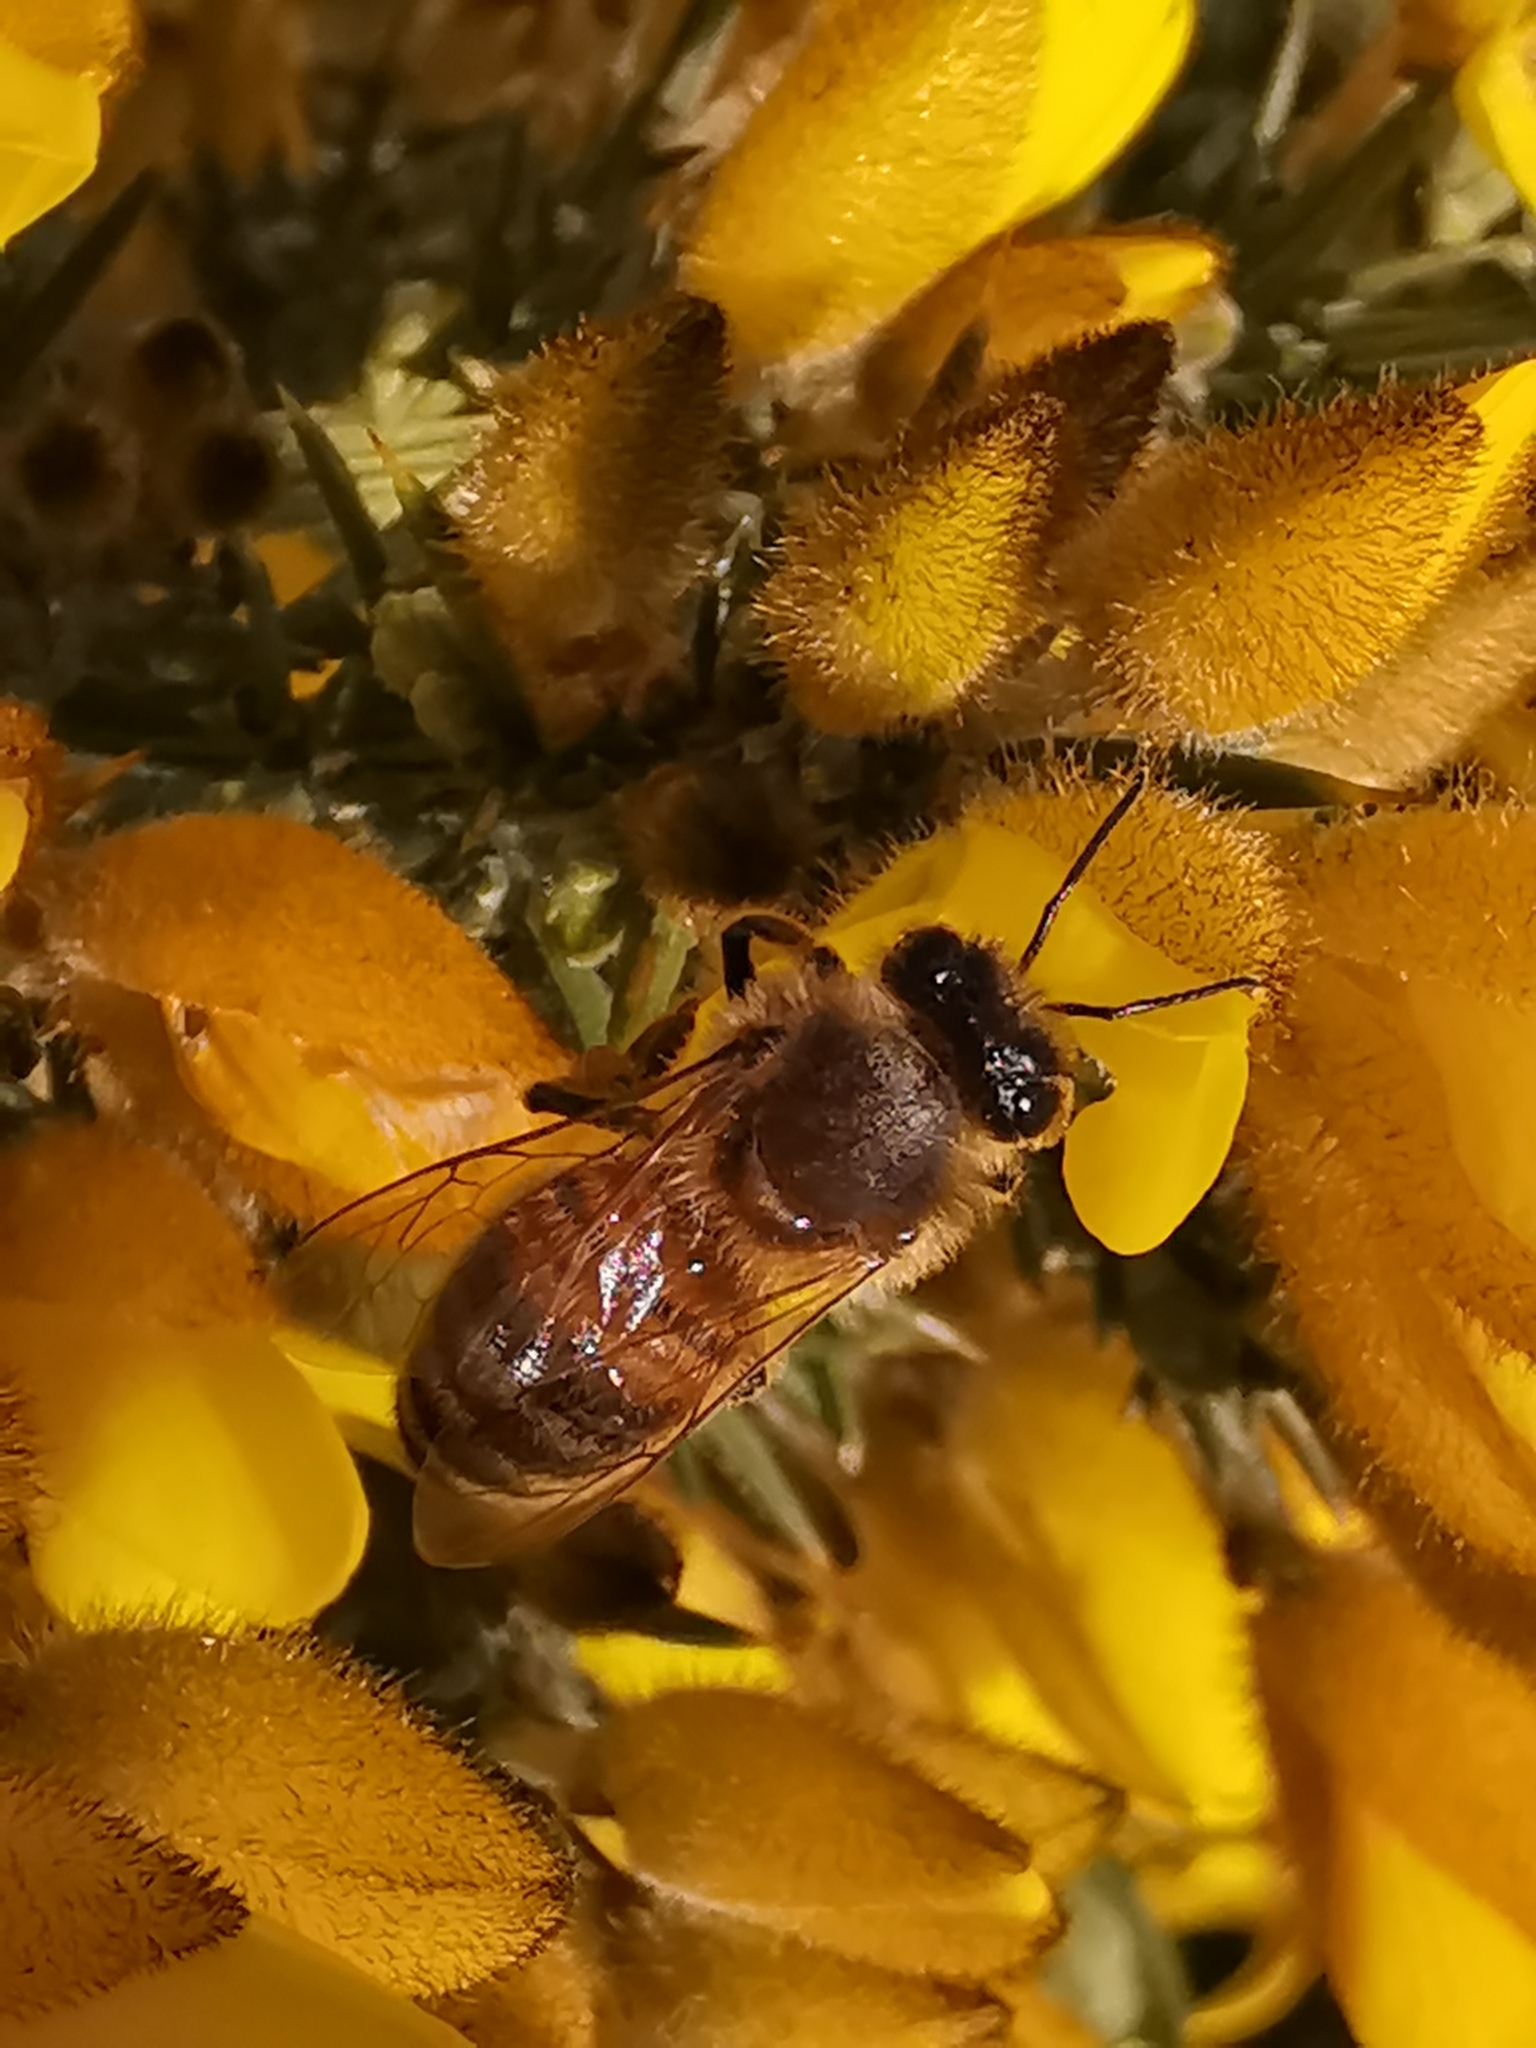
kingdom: Animalia
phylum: Arthropoda
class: Insecta
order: Hymenoptera
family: Apidae
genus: Apis
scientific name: Apis mellifera
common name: Honey bee
